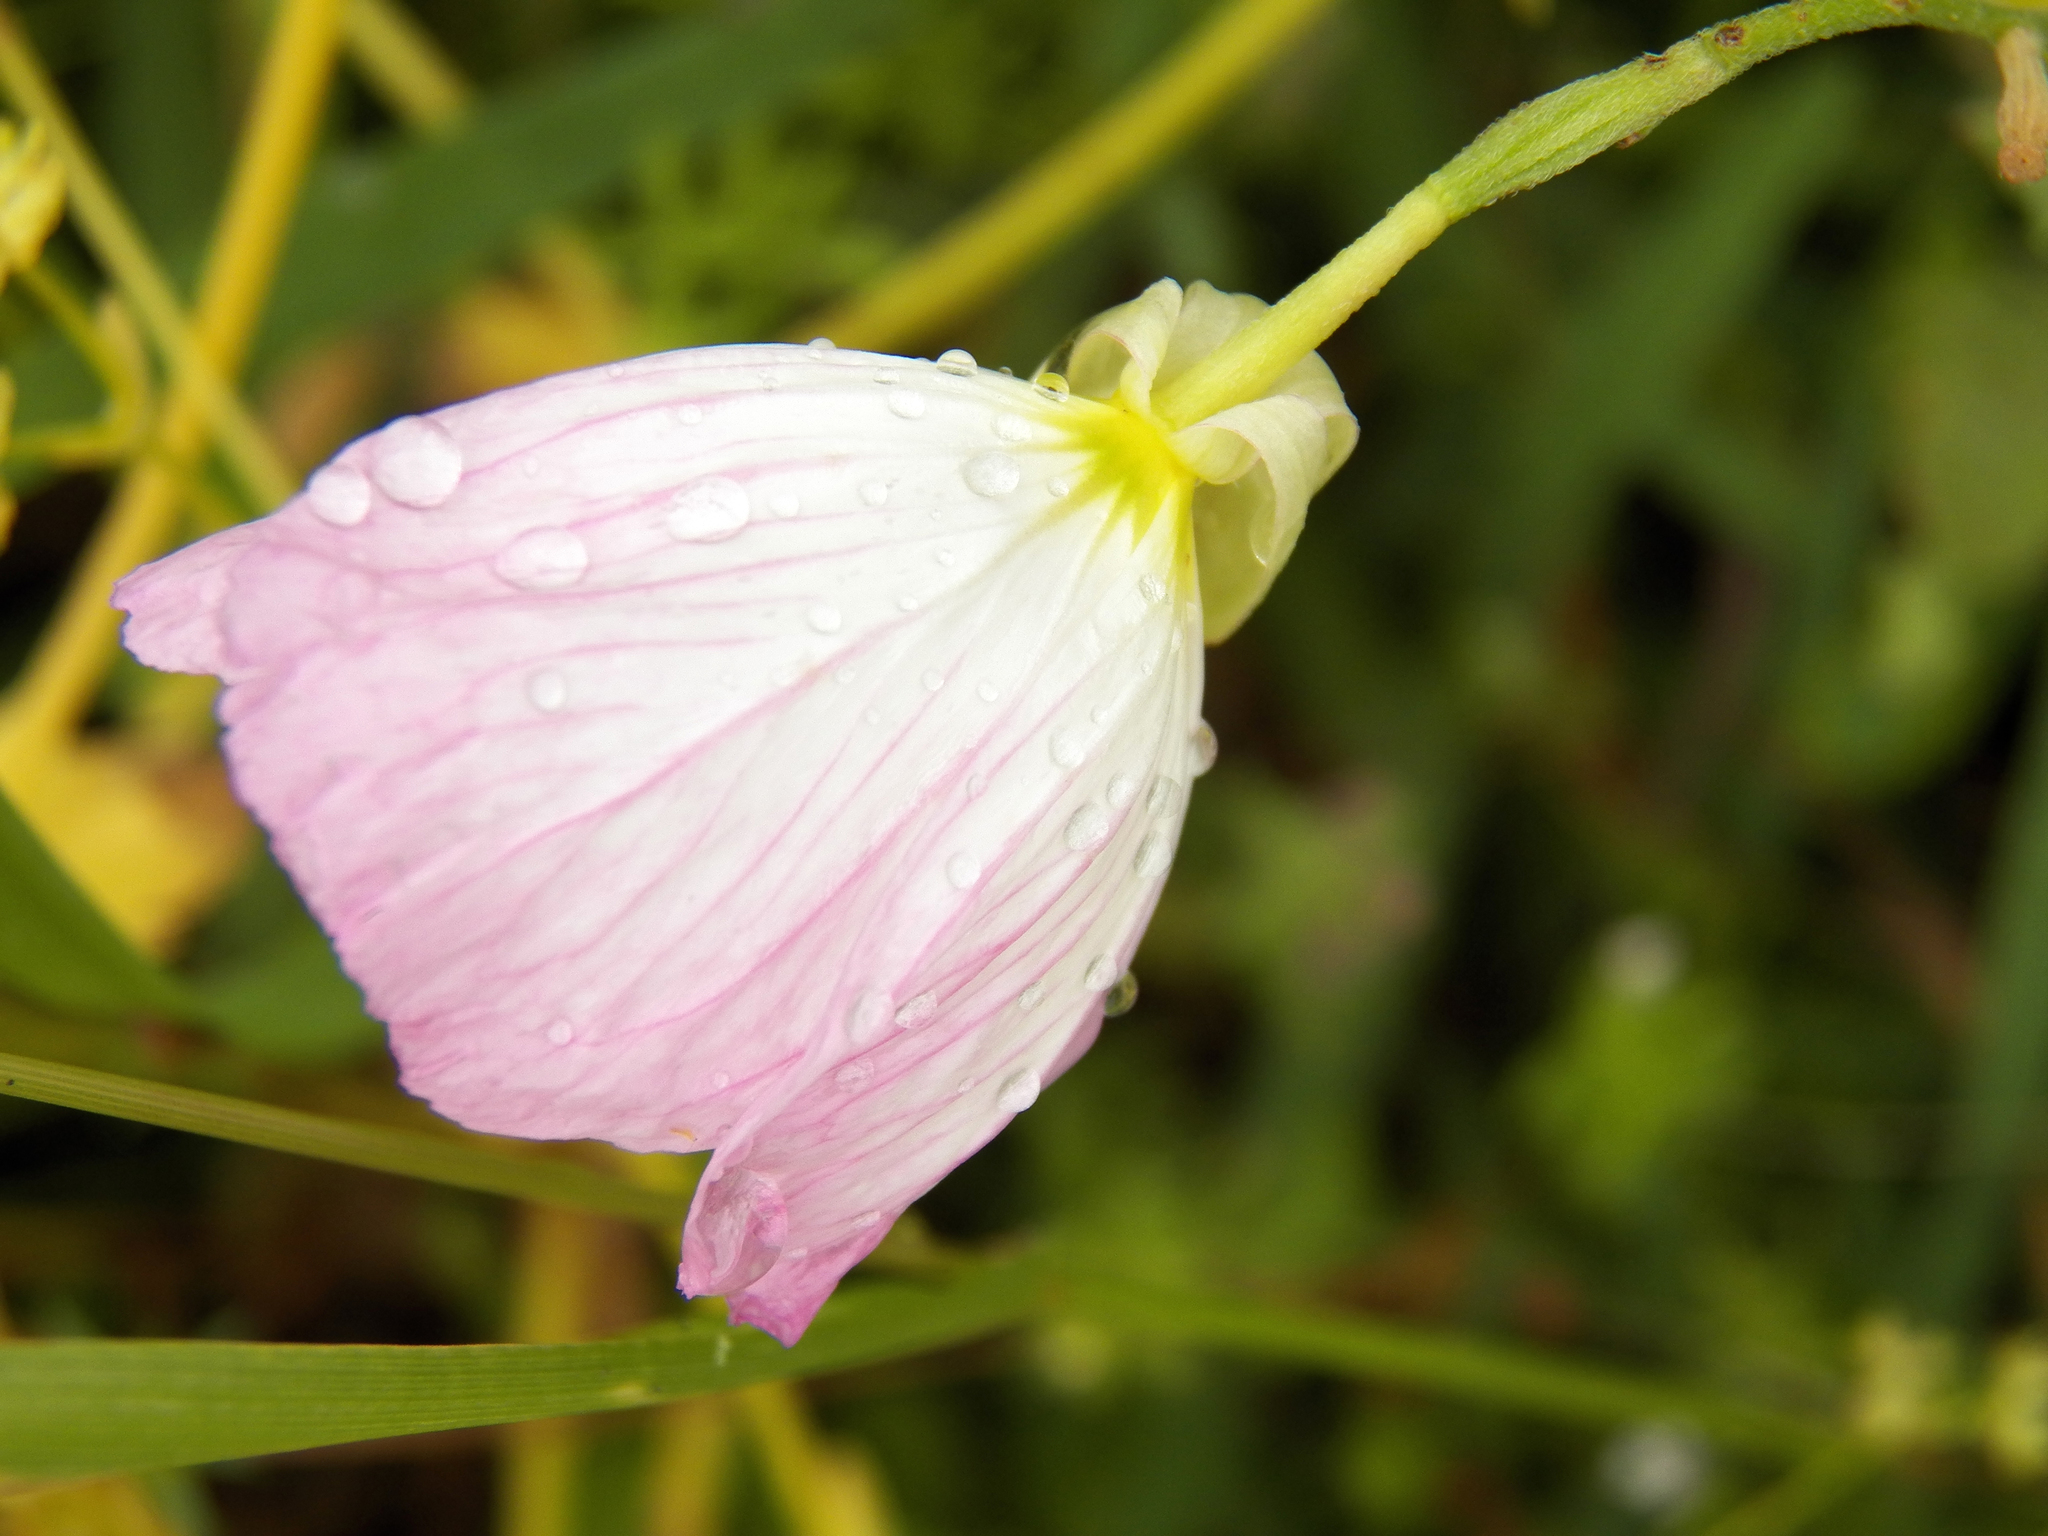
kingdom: Plantae
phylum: Tracheophyta
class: Magnoliopsida
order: Myrtales
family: Onagraceae
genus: Oenothera
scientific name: Oenothera speciosa
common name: White evening-primrose
